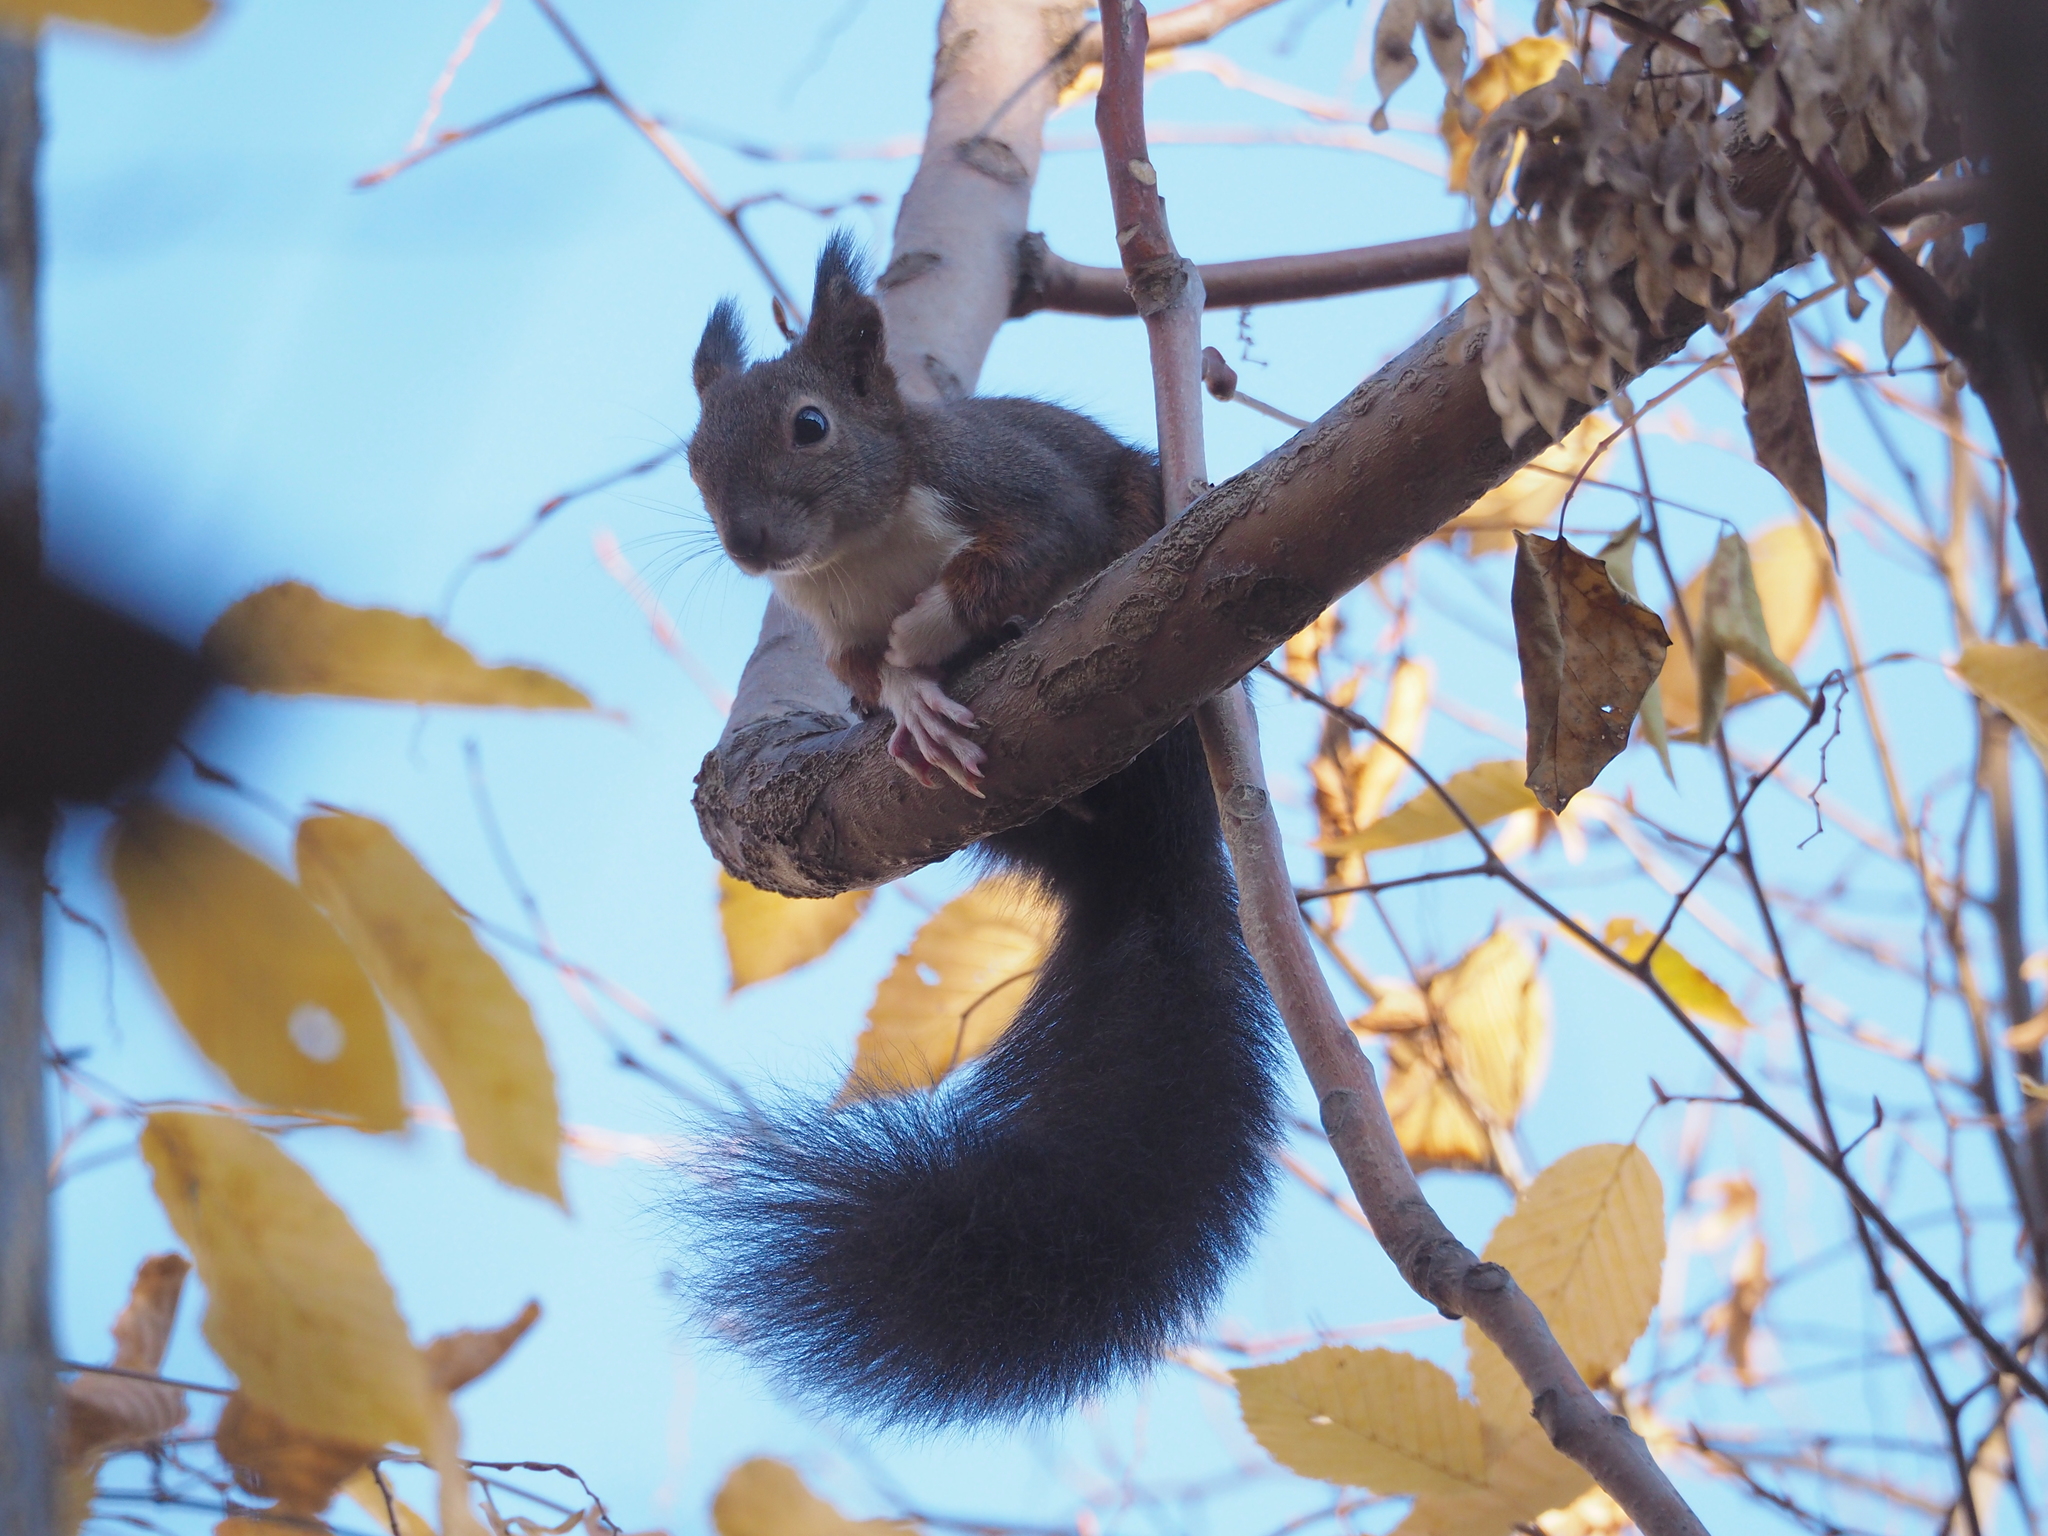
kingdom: Animalia
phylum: Chordata
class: Mammalia
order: Rodentia
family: Sciuridae
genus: Sciurus
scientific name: Sciurus vulgaris
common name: Eurasian red squirrel
